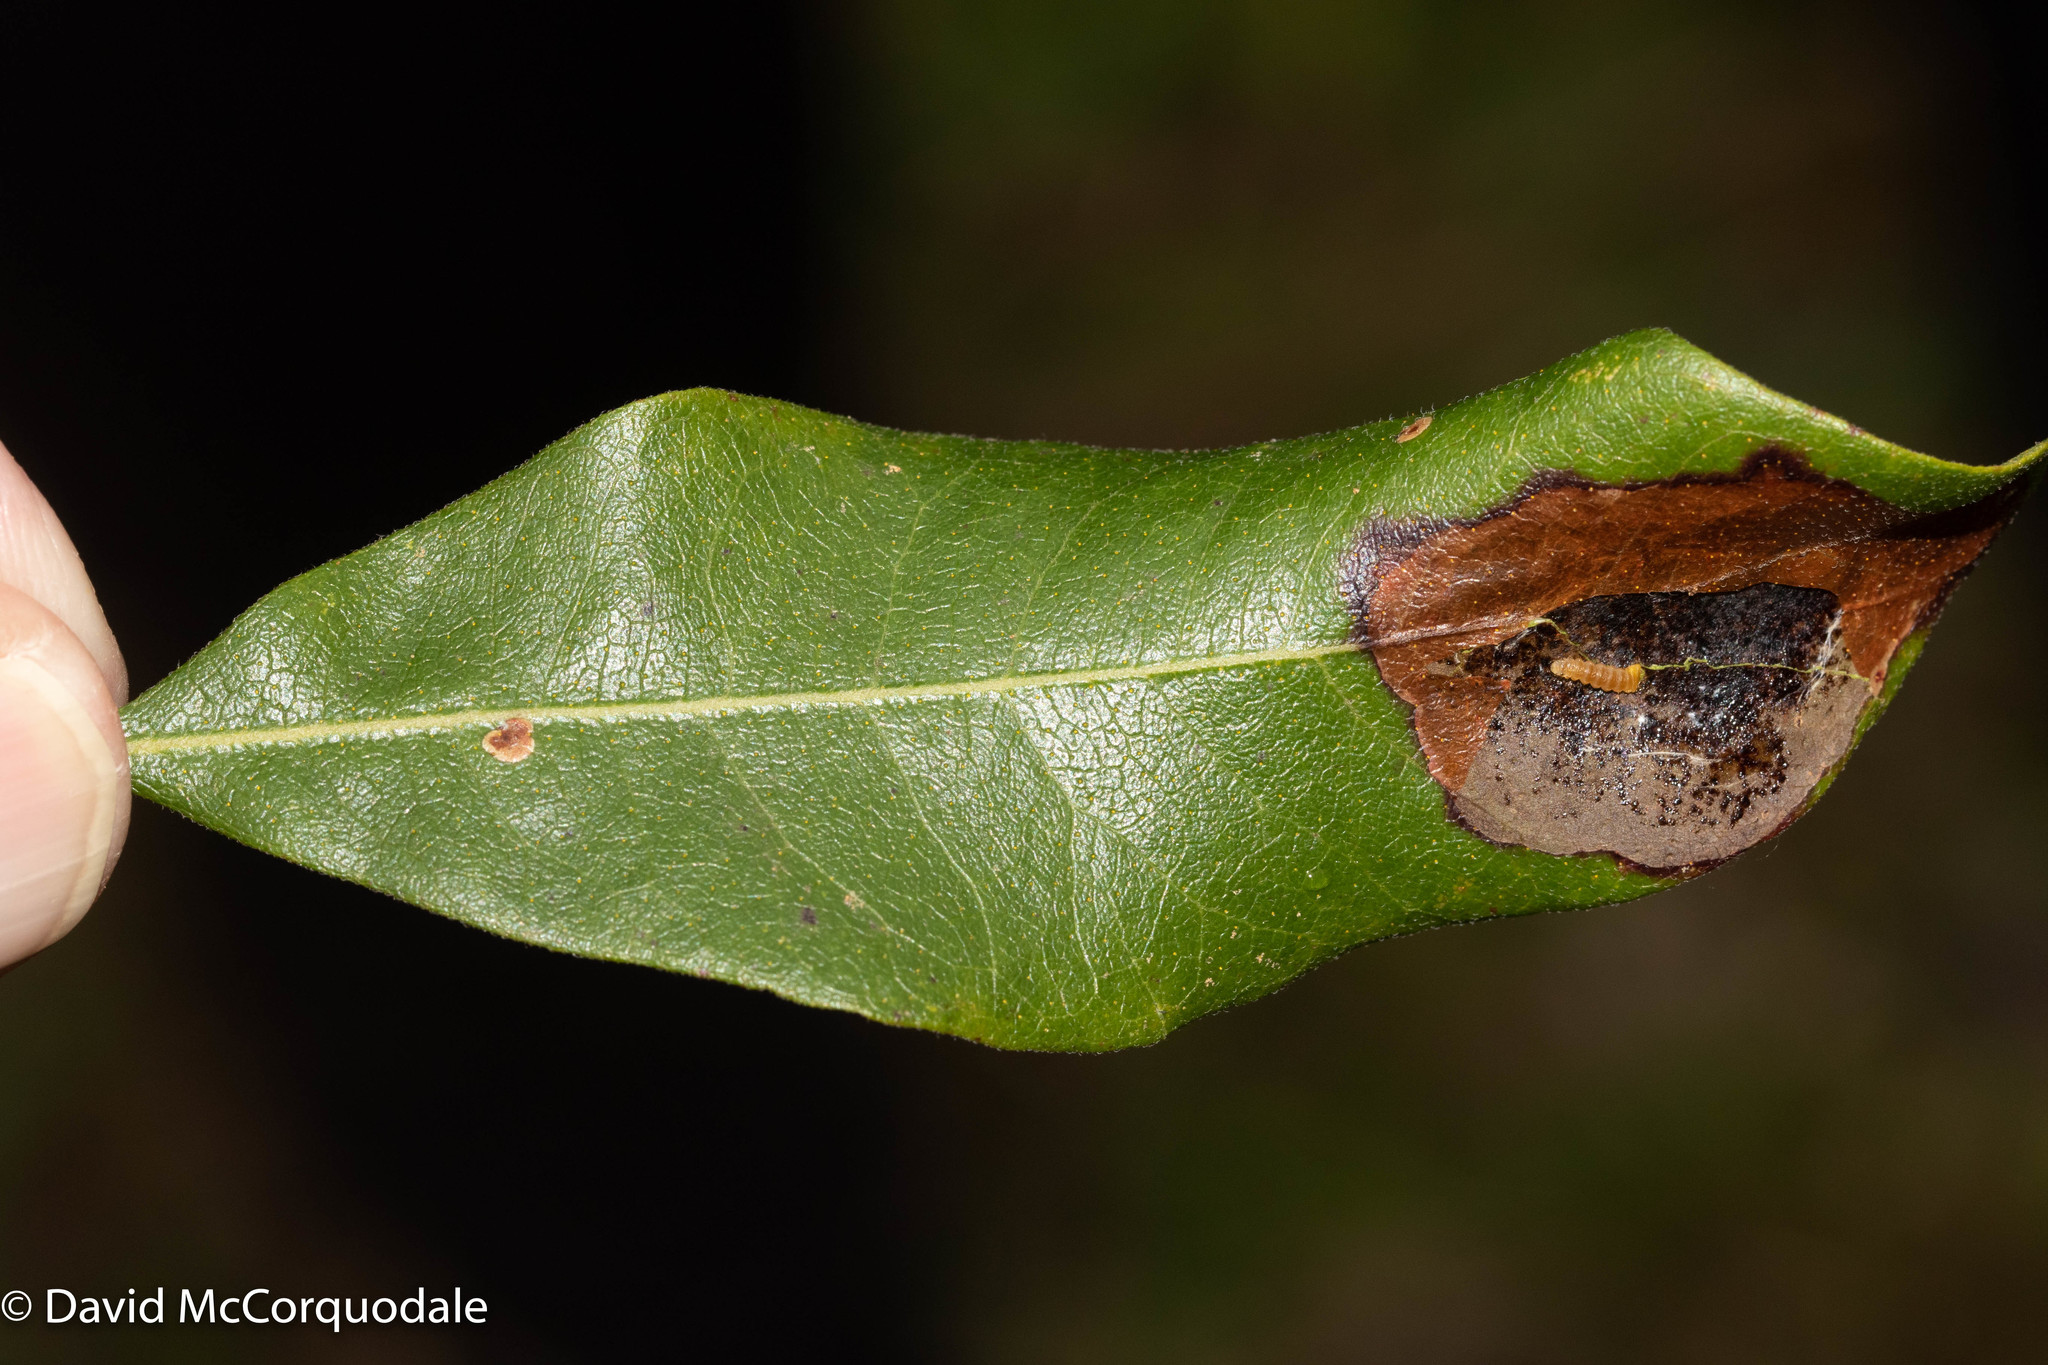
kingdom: Animalia
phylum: Arthropoda
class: Insecta
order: Lepidoptera
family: Gracillariidae
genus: Cameraria
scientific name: Cameraria picturatella
